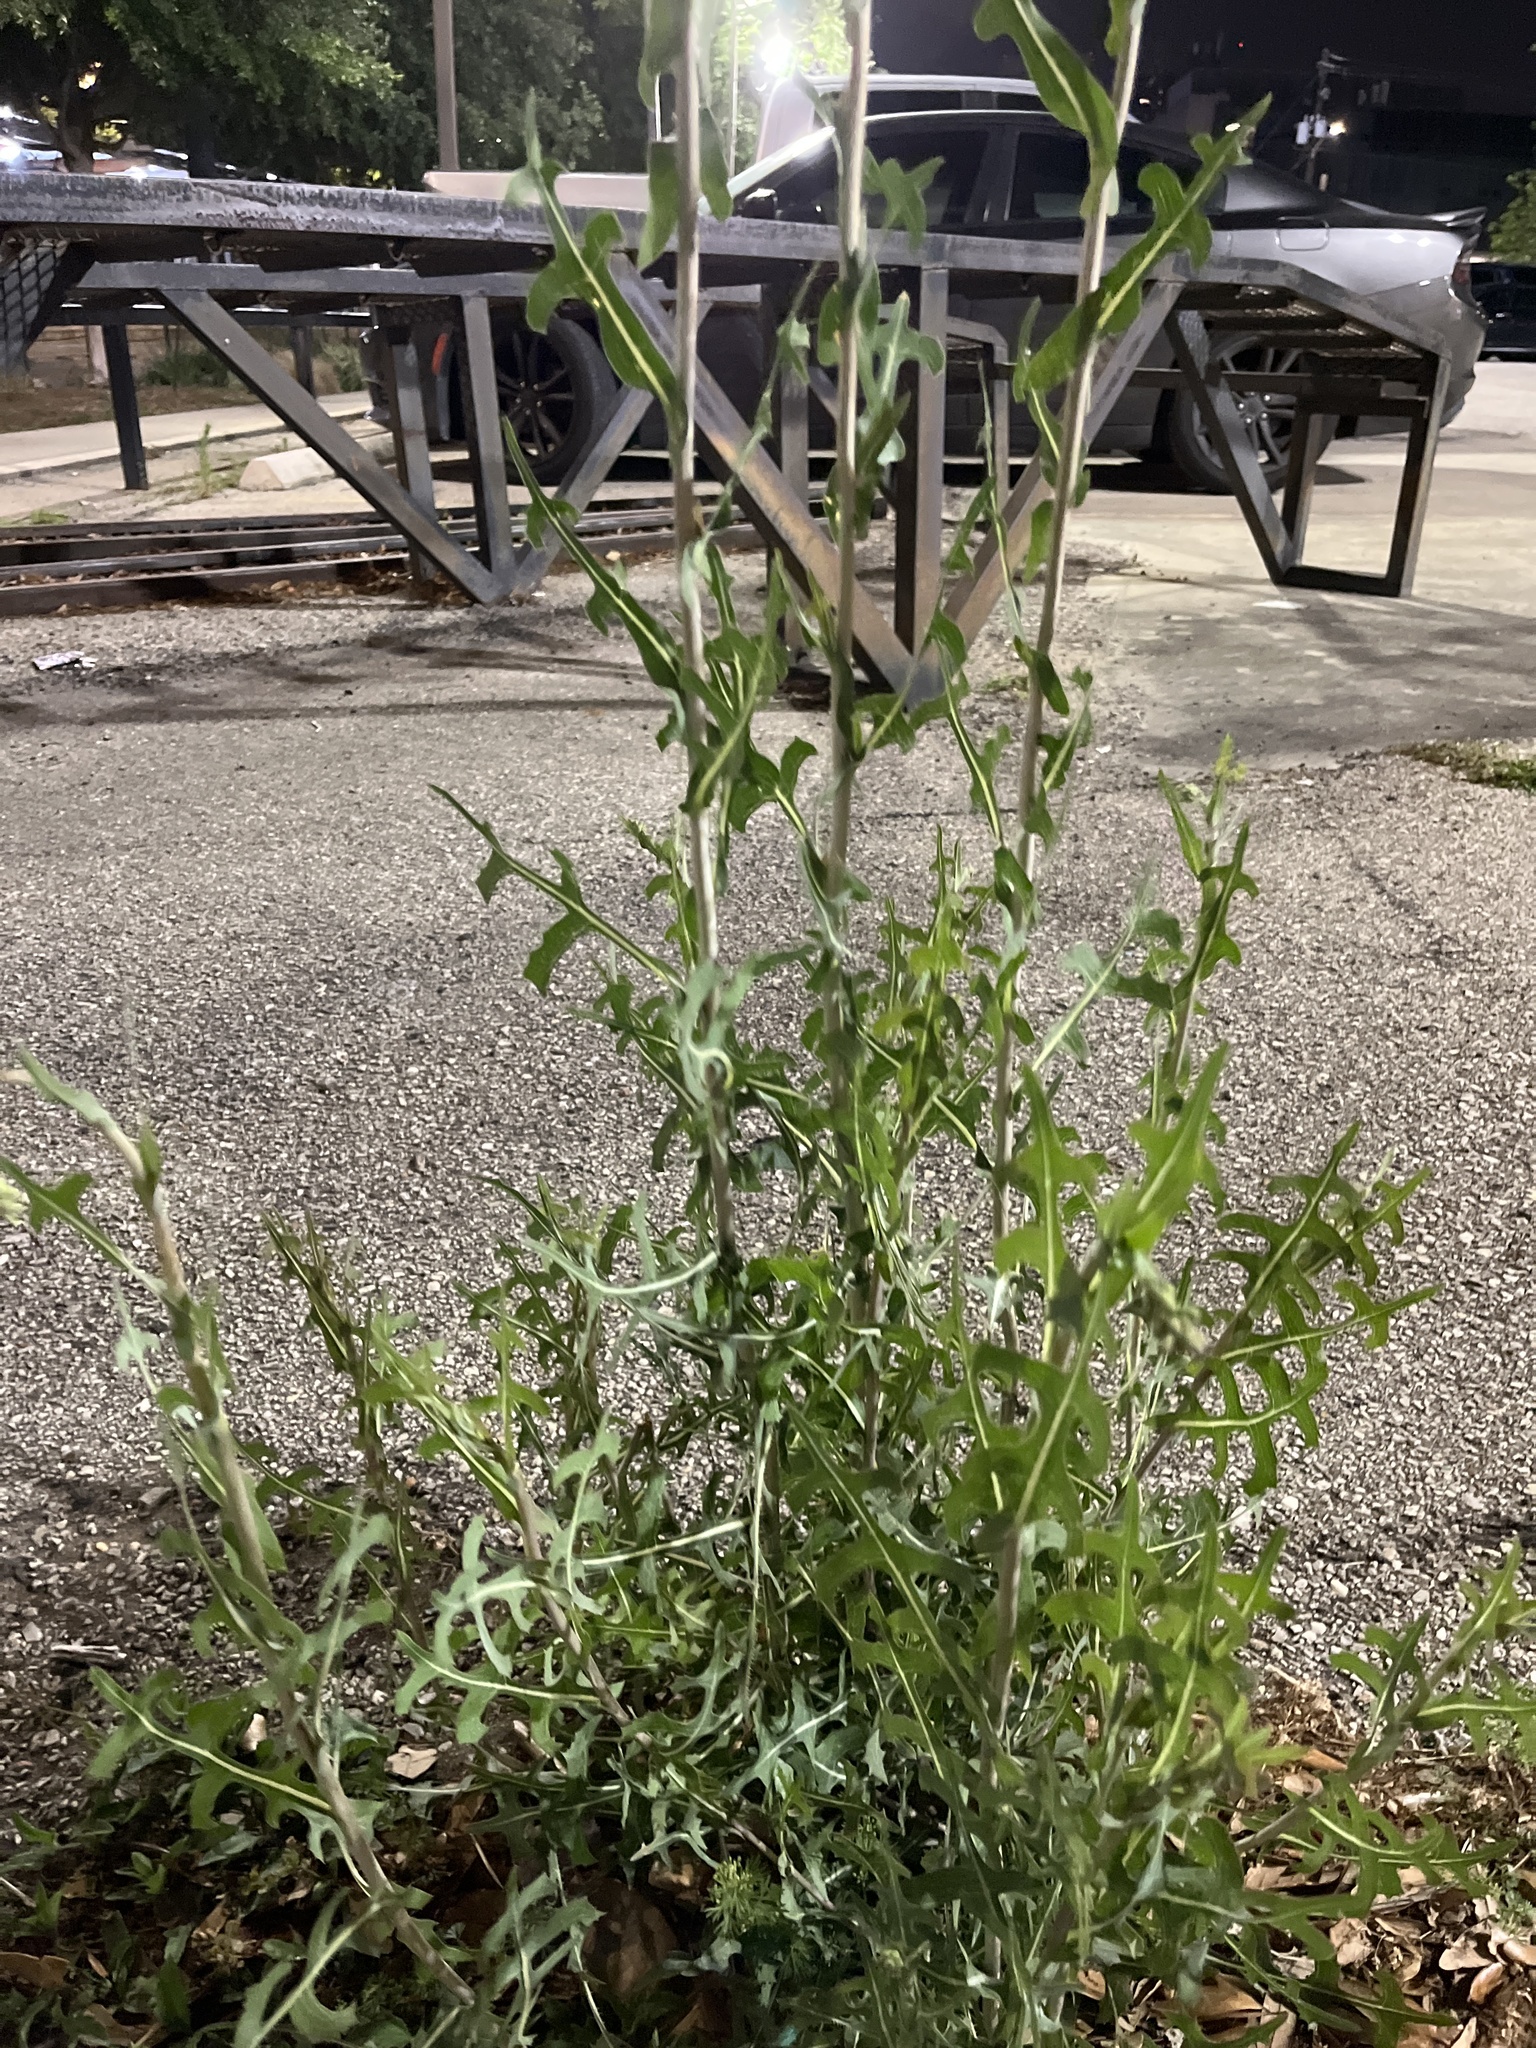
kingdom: Plantae
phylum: Tracheophyta
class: Magnoliopsida
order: Asterales
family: Asteraceae
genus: Lactuca
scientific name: Lactuca serriola
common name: Prickly lettuce
